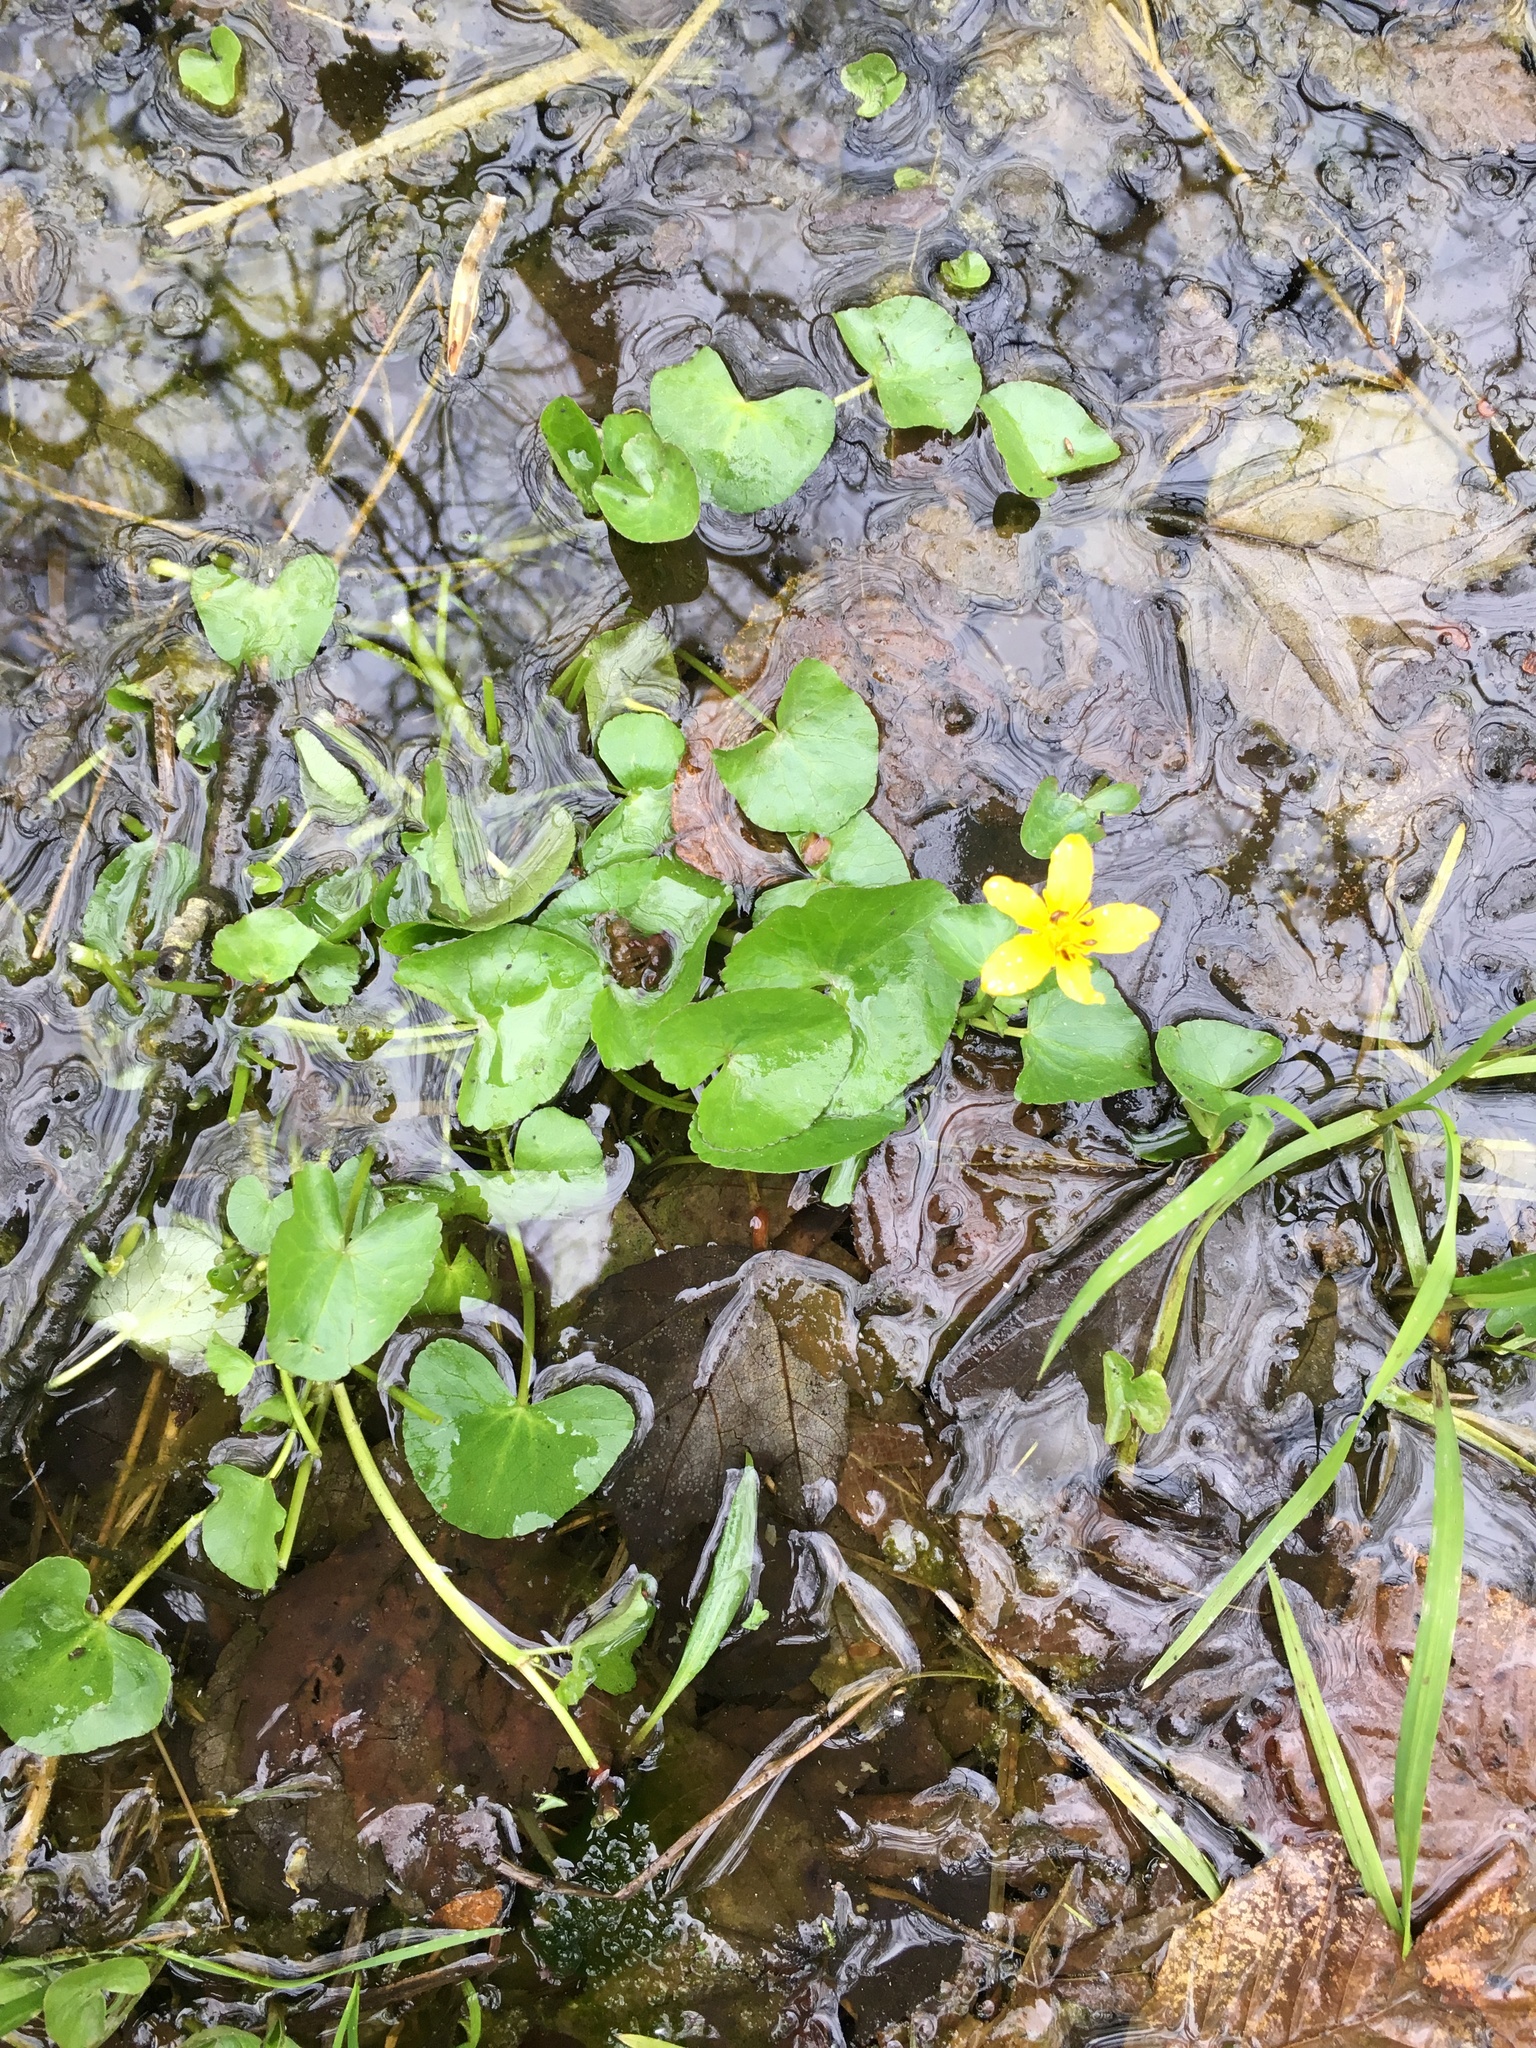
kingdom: Plantae
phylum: Tracheophyta
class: Magnoliopsida
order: Ranunculales
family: Ranunculaceae
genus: Caltha
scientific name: Caltha palustris
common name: Marsh marigold
